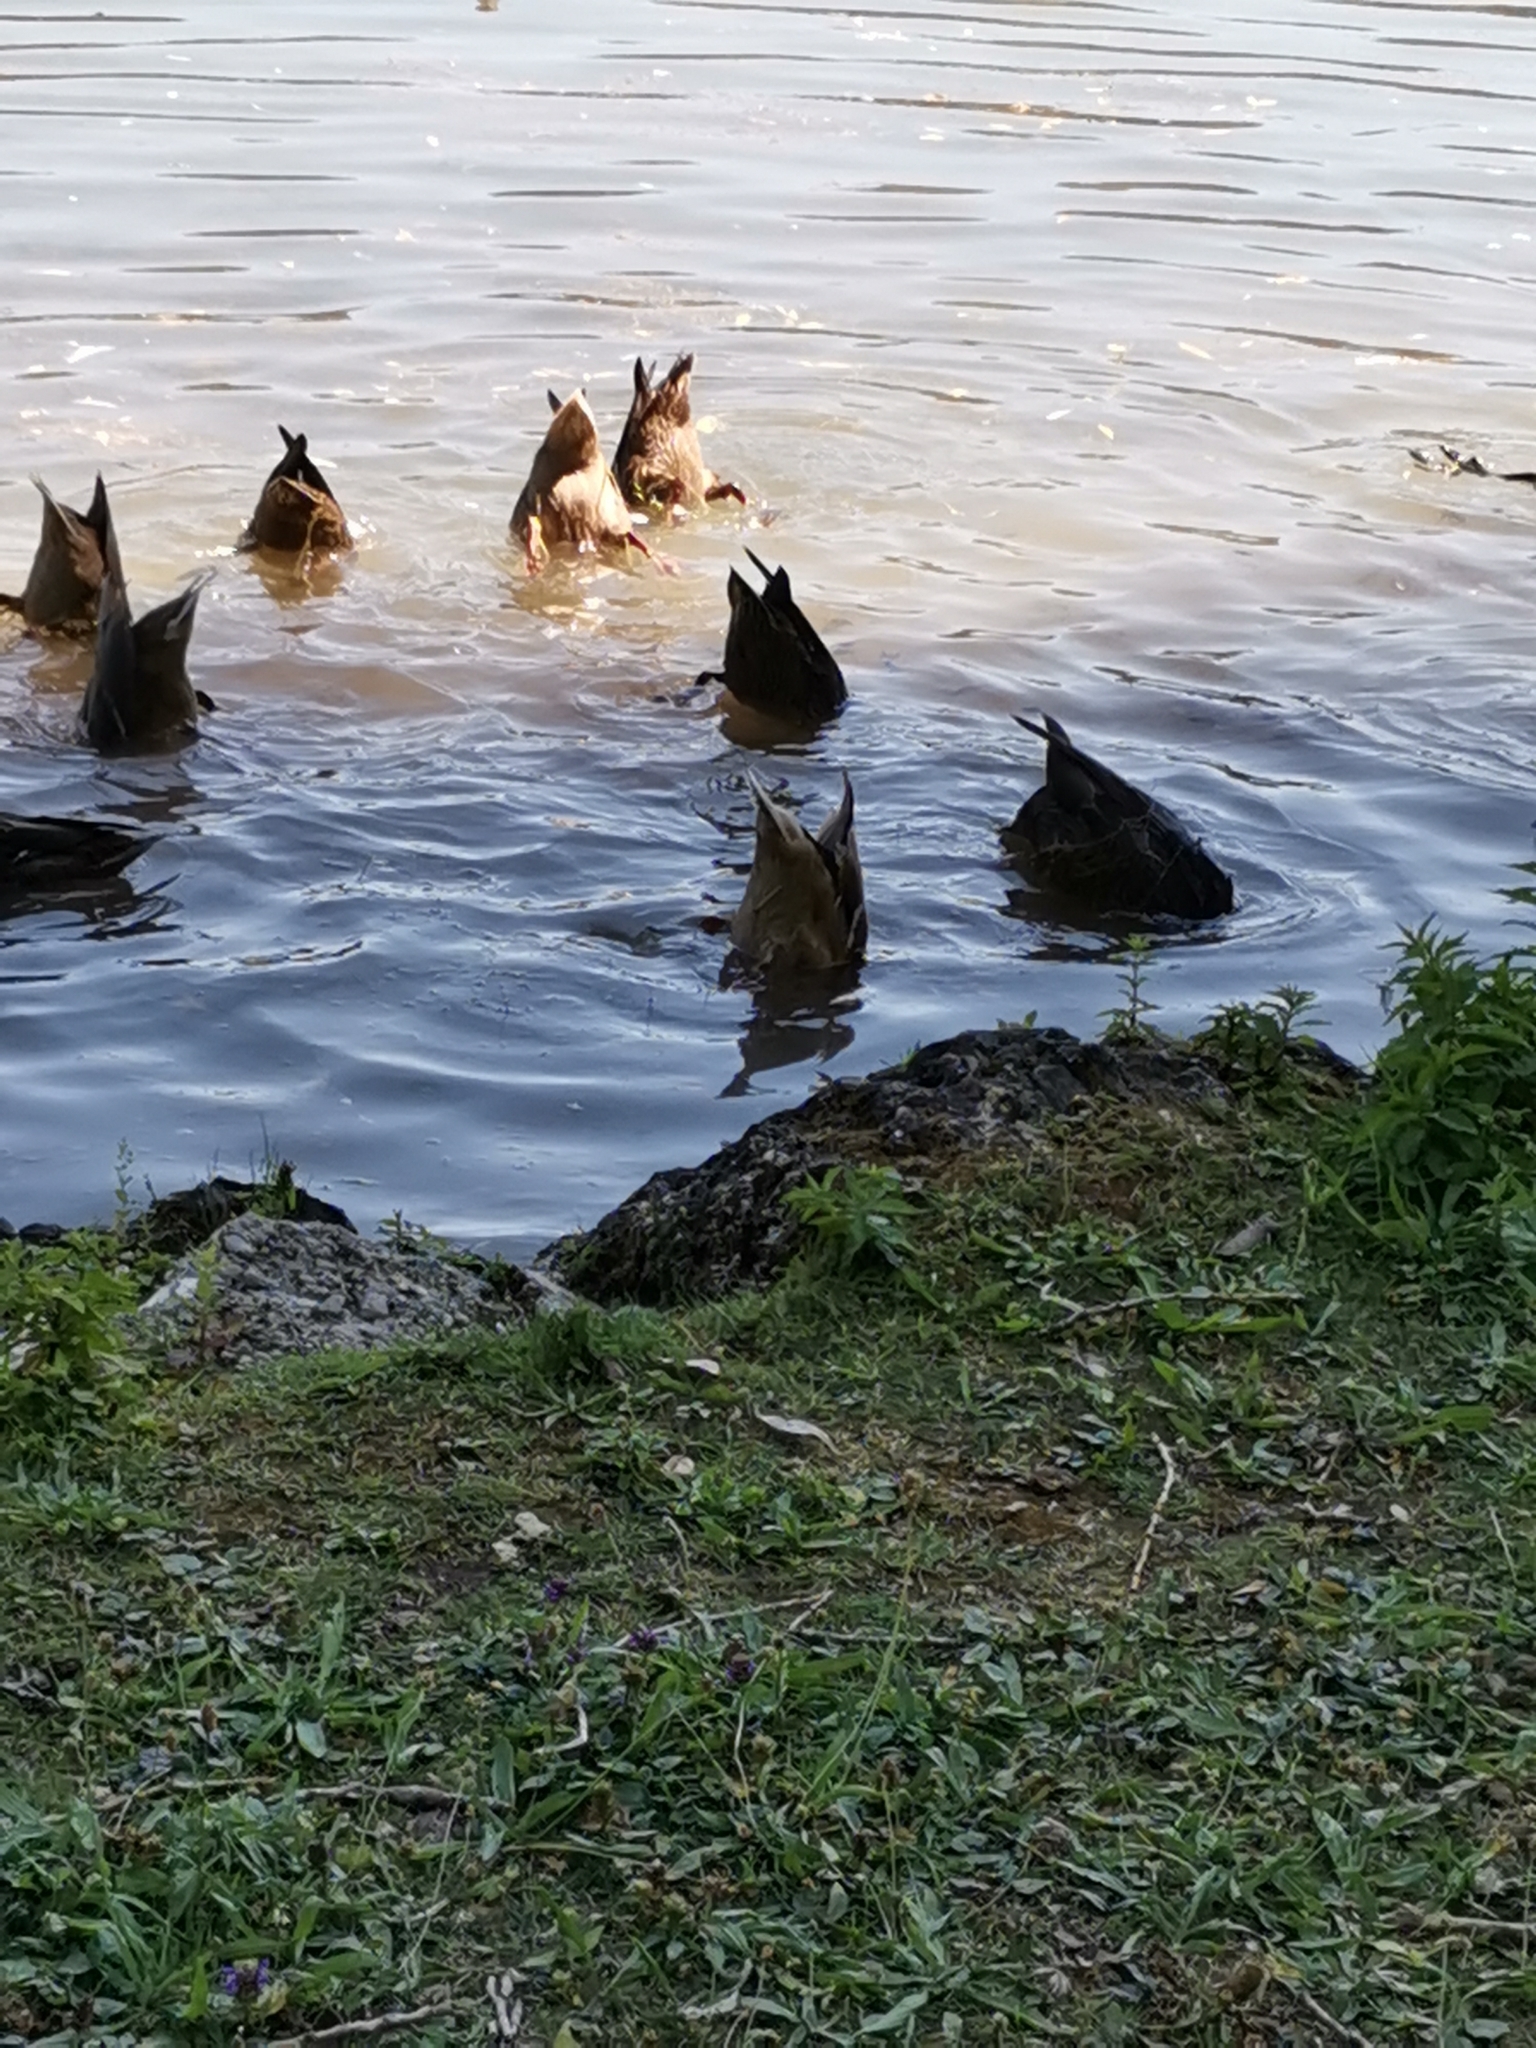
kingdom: Animalia
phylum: Chordata
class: Aves
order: Anseriformes
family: Anatidae
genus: Anas
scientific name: Anas platyrhynchos
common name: Mallard
